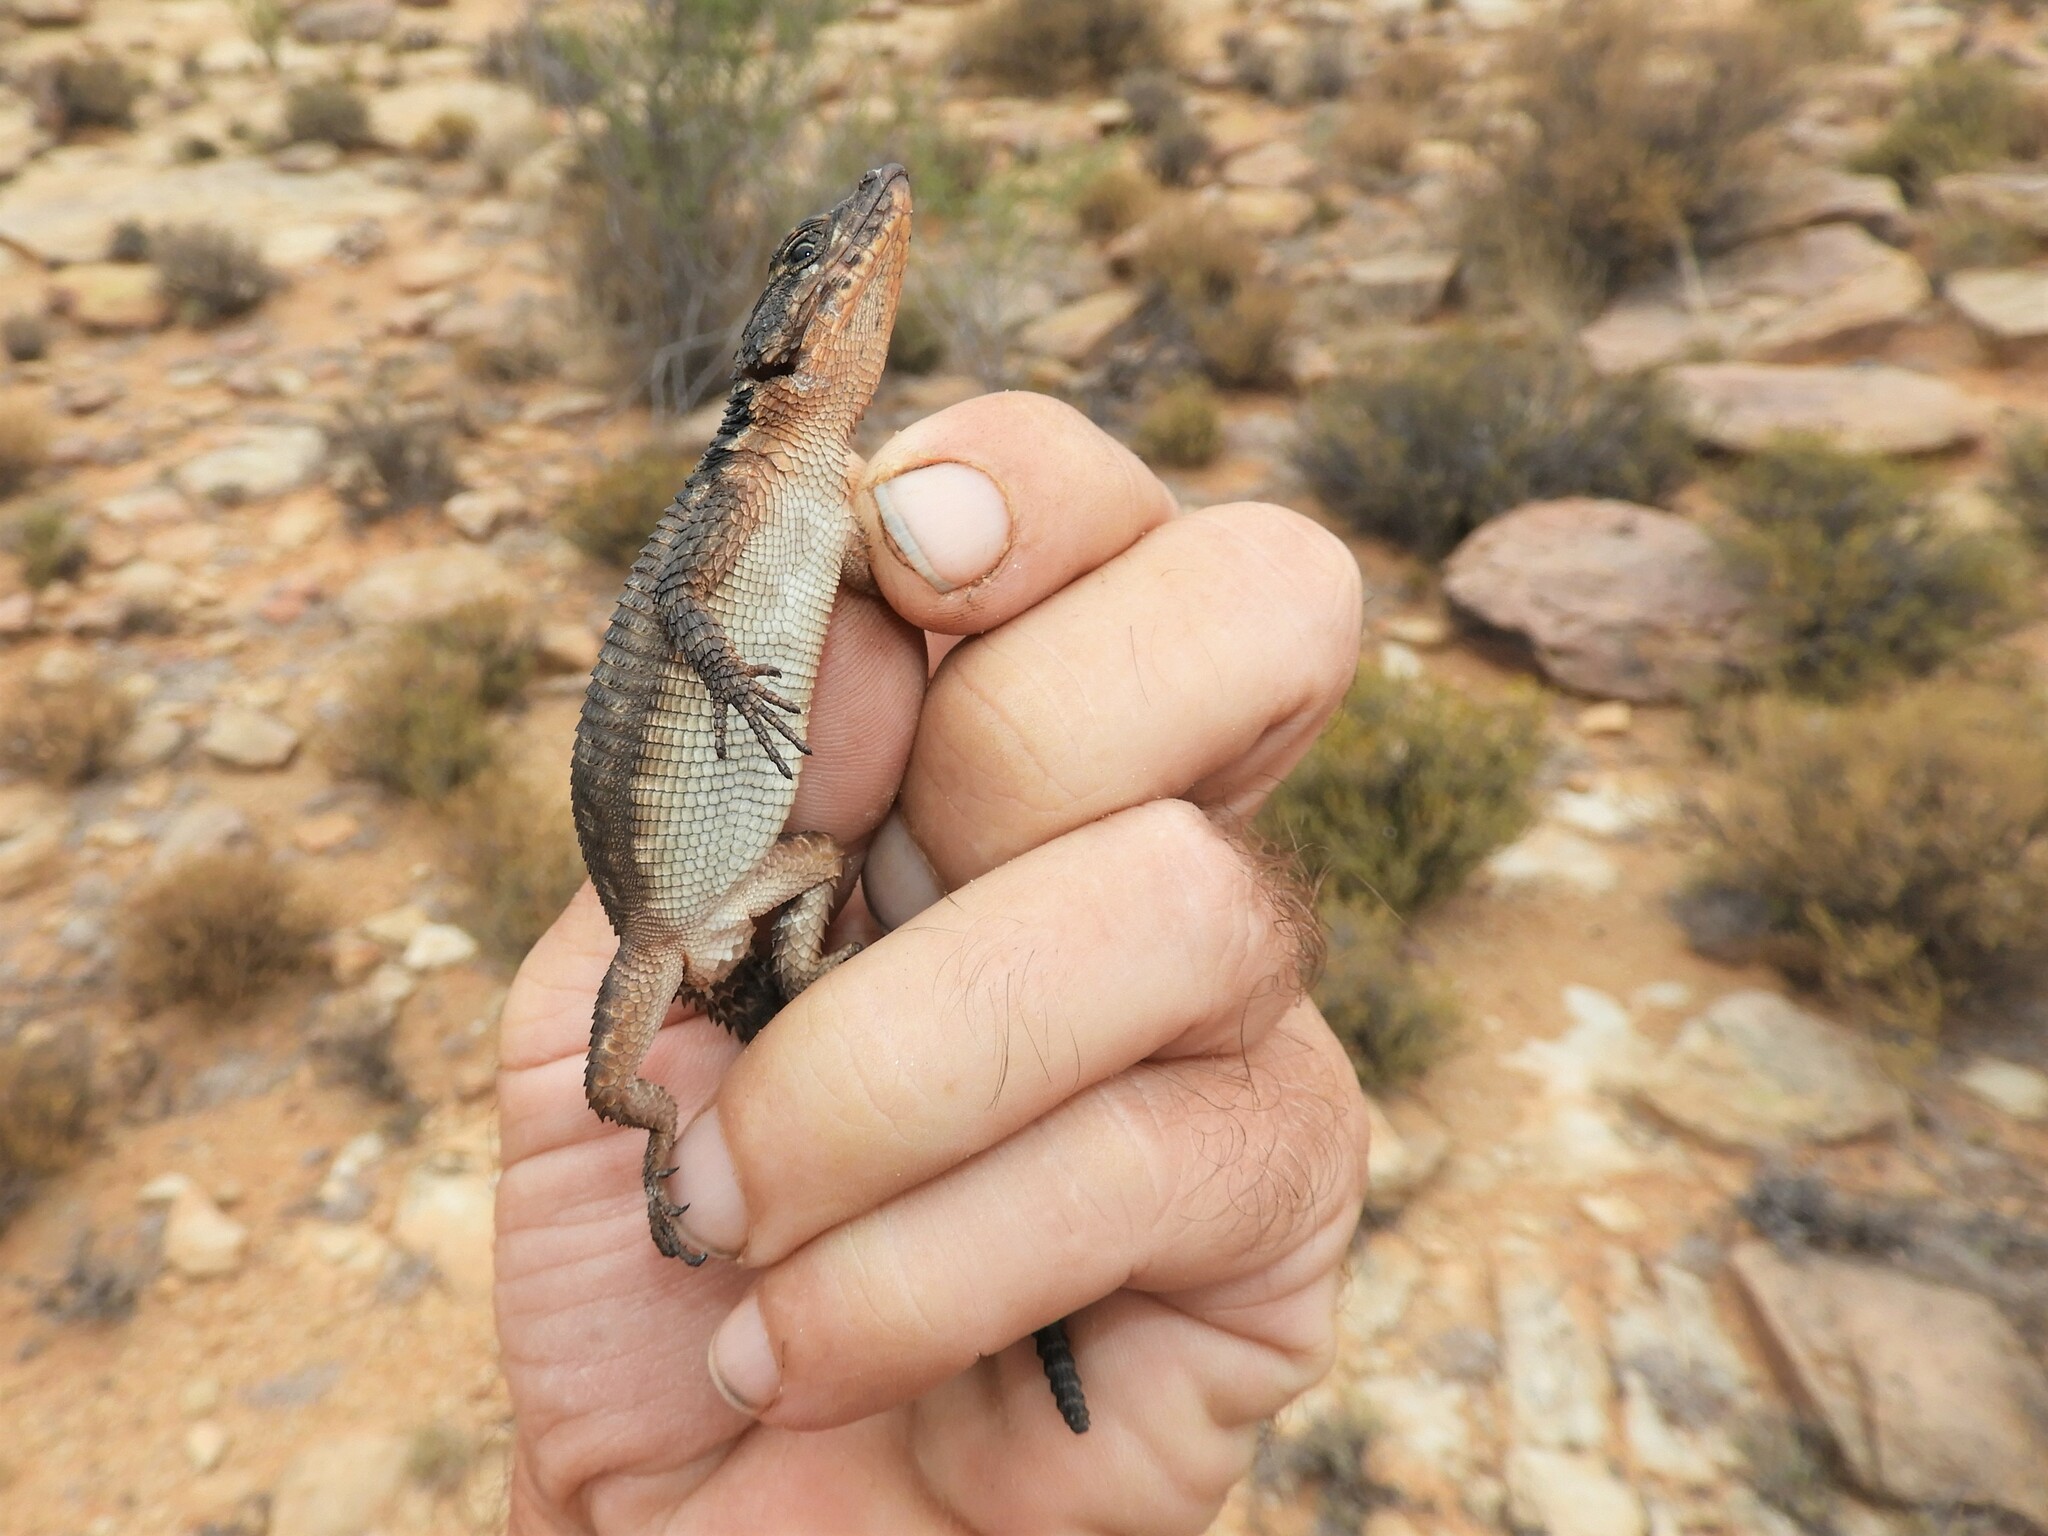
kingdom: Animalia
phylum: Chordata
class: Squamata
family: Cordylidae
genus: Karusasaurus
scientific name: Karusasaurus polyzonus
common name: Karoo girdled lizard
